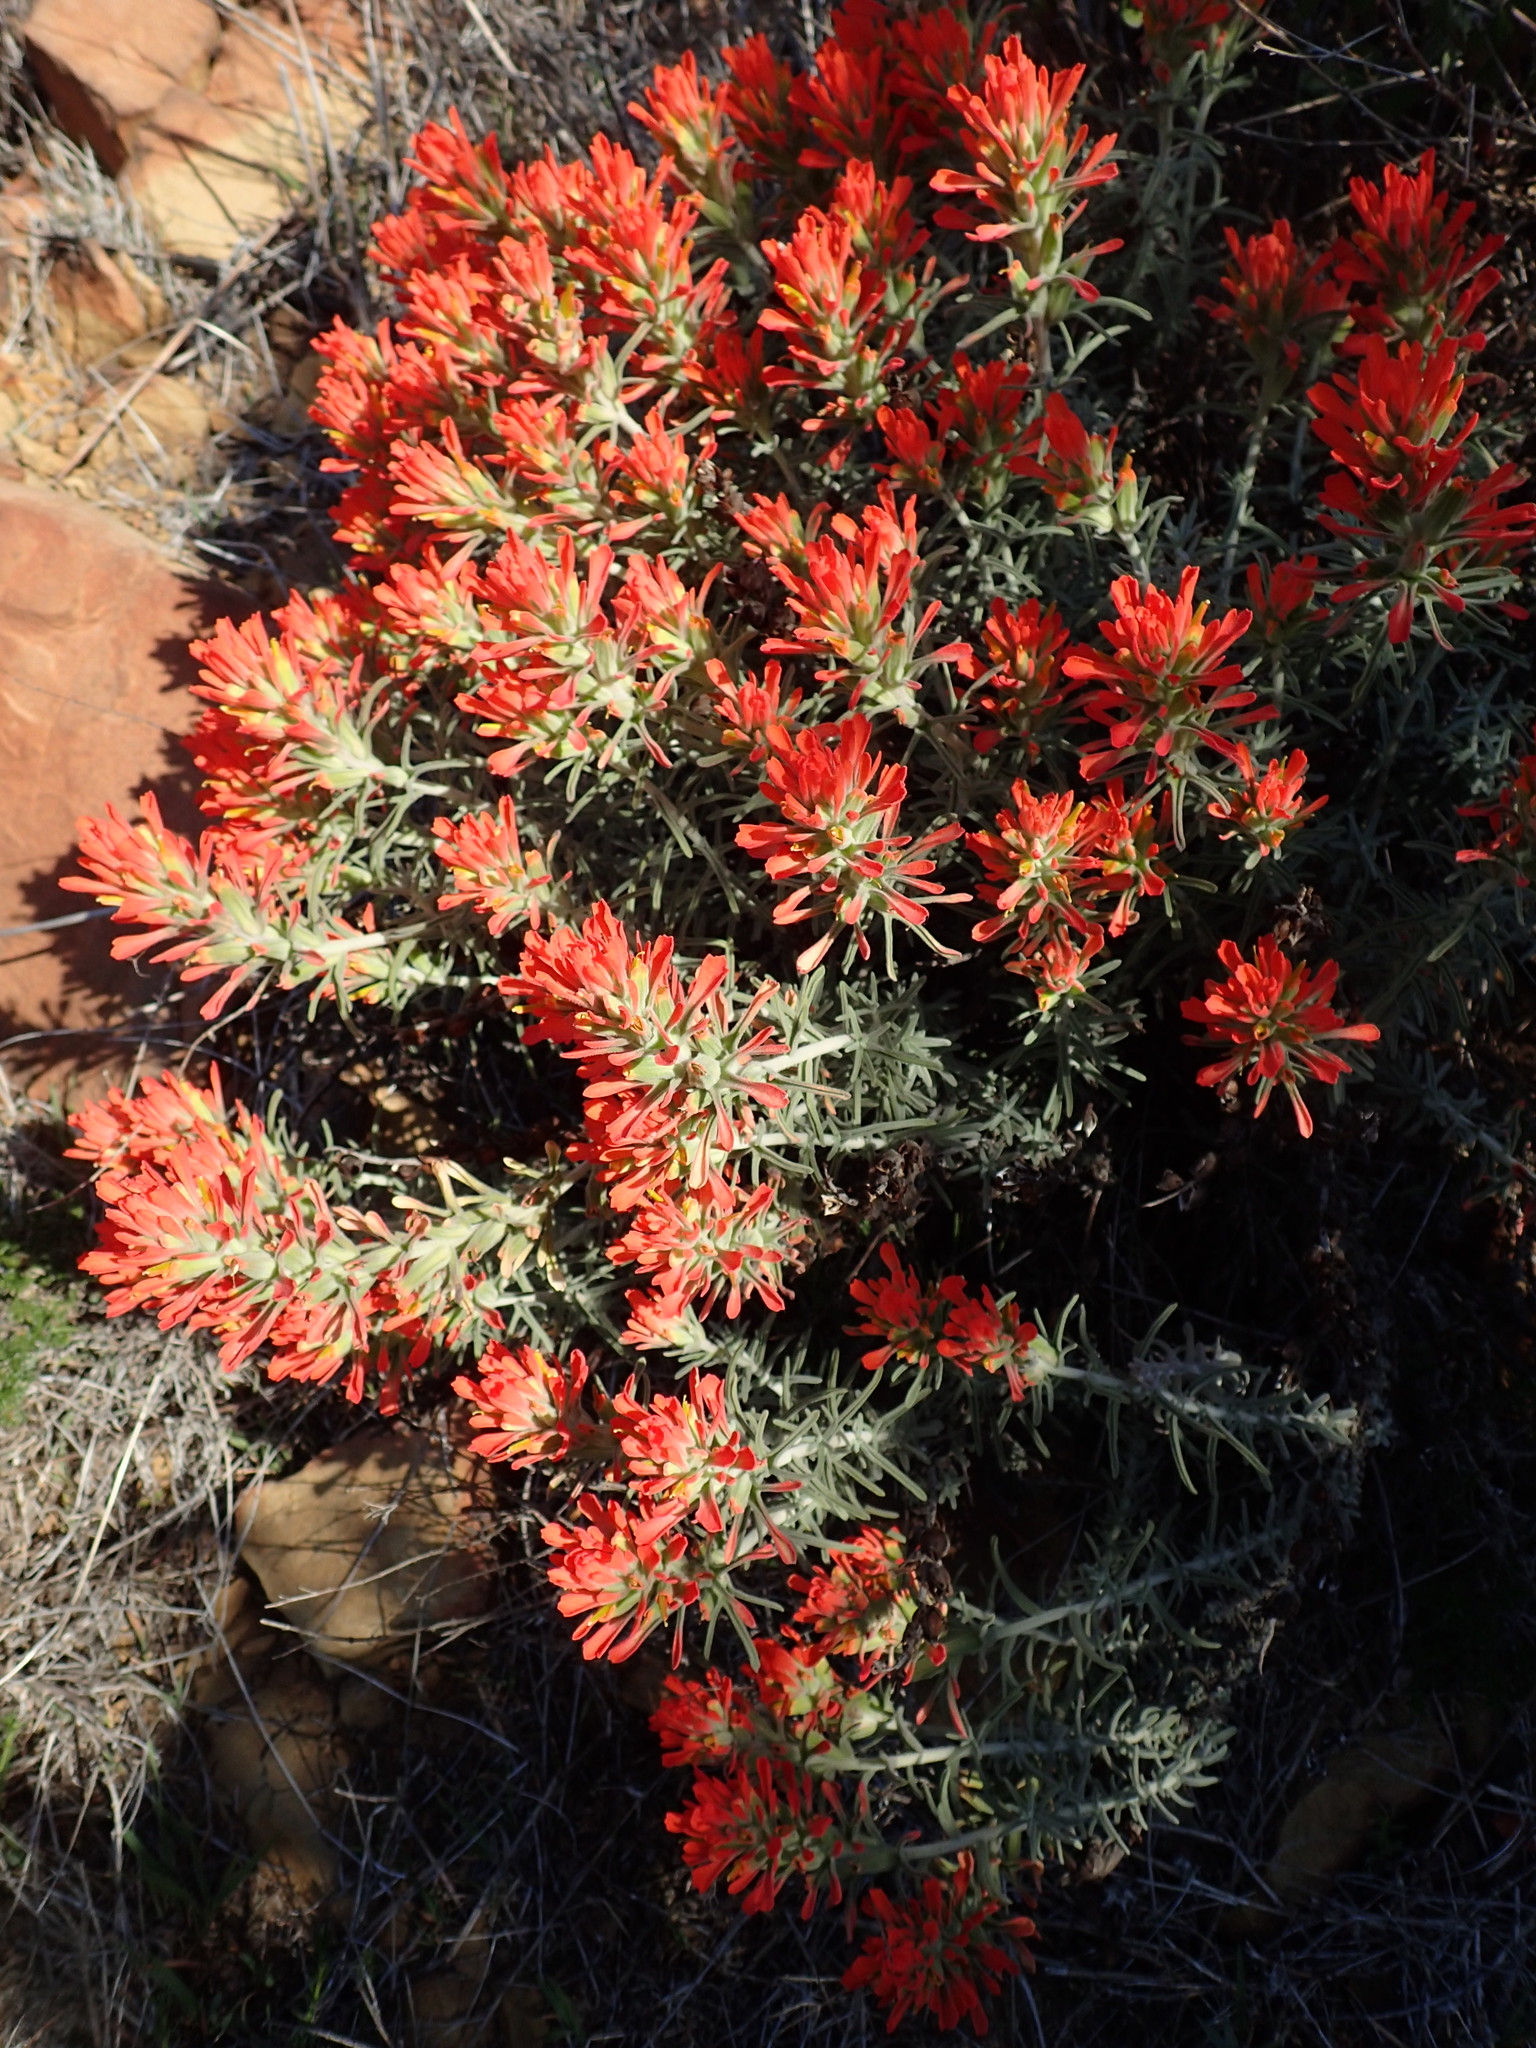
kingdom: Plantae
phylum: Tracheophyta
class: Magnoliopsida
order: Lamiales
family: Orobanchaceae
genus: Castilleja
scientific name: Castilleja foliolosa
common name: Woolly indian paintbrush
